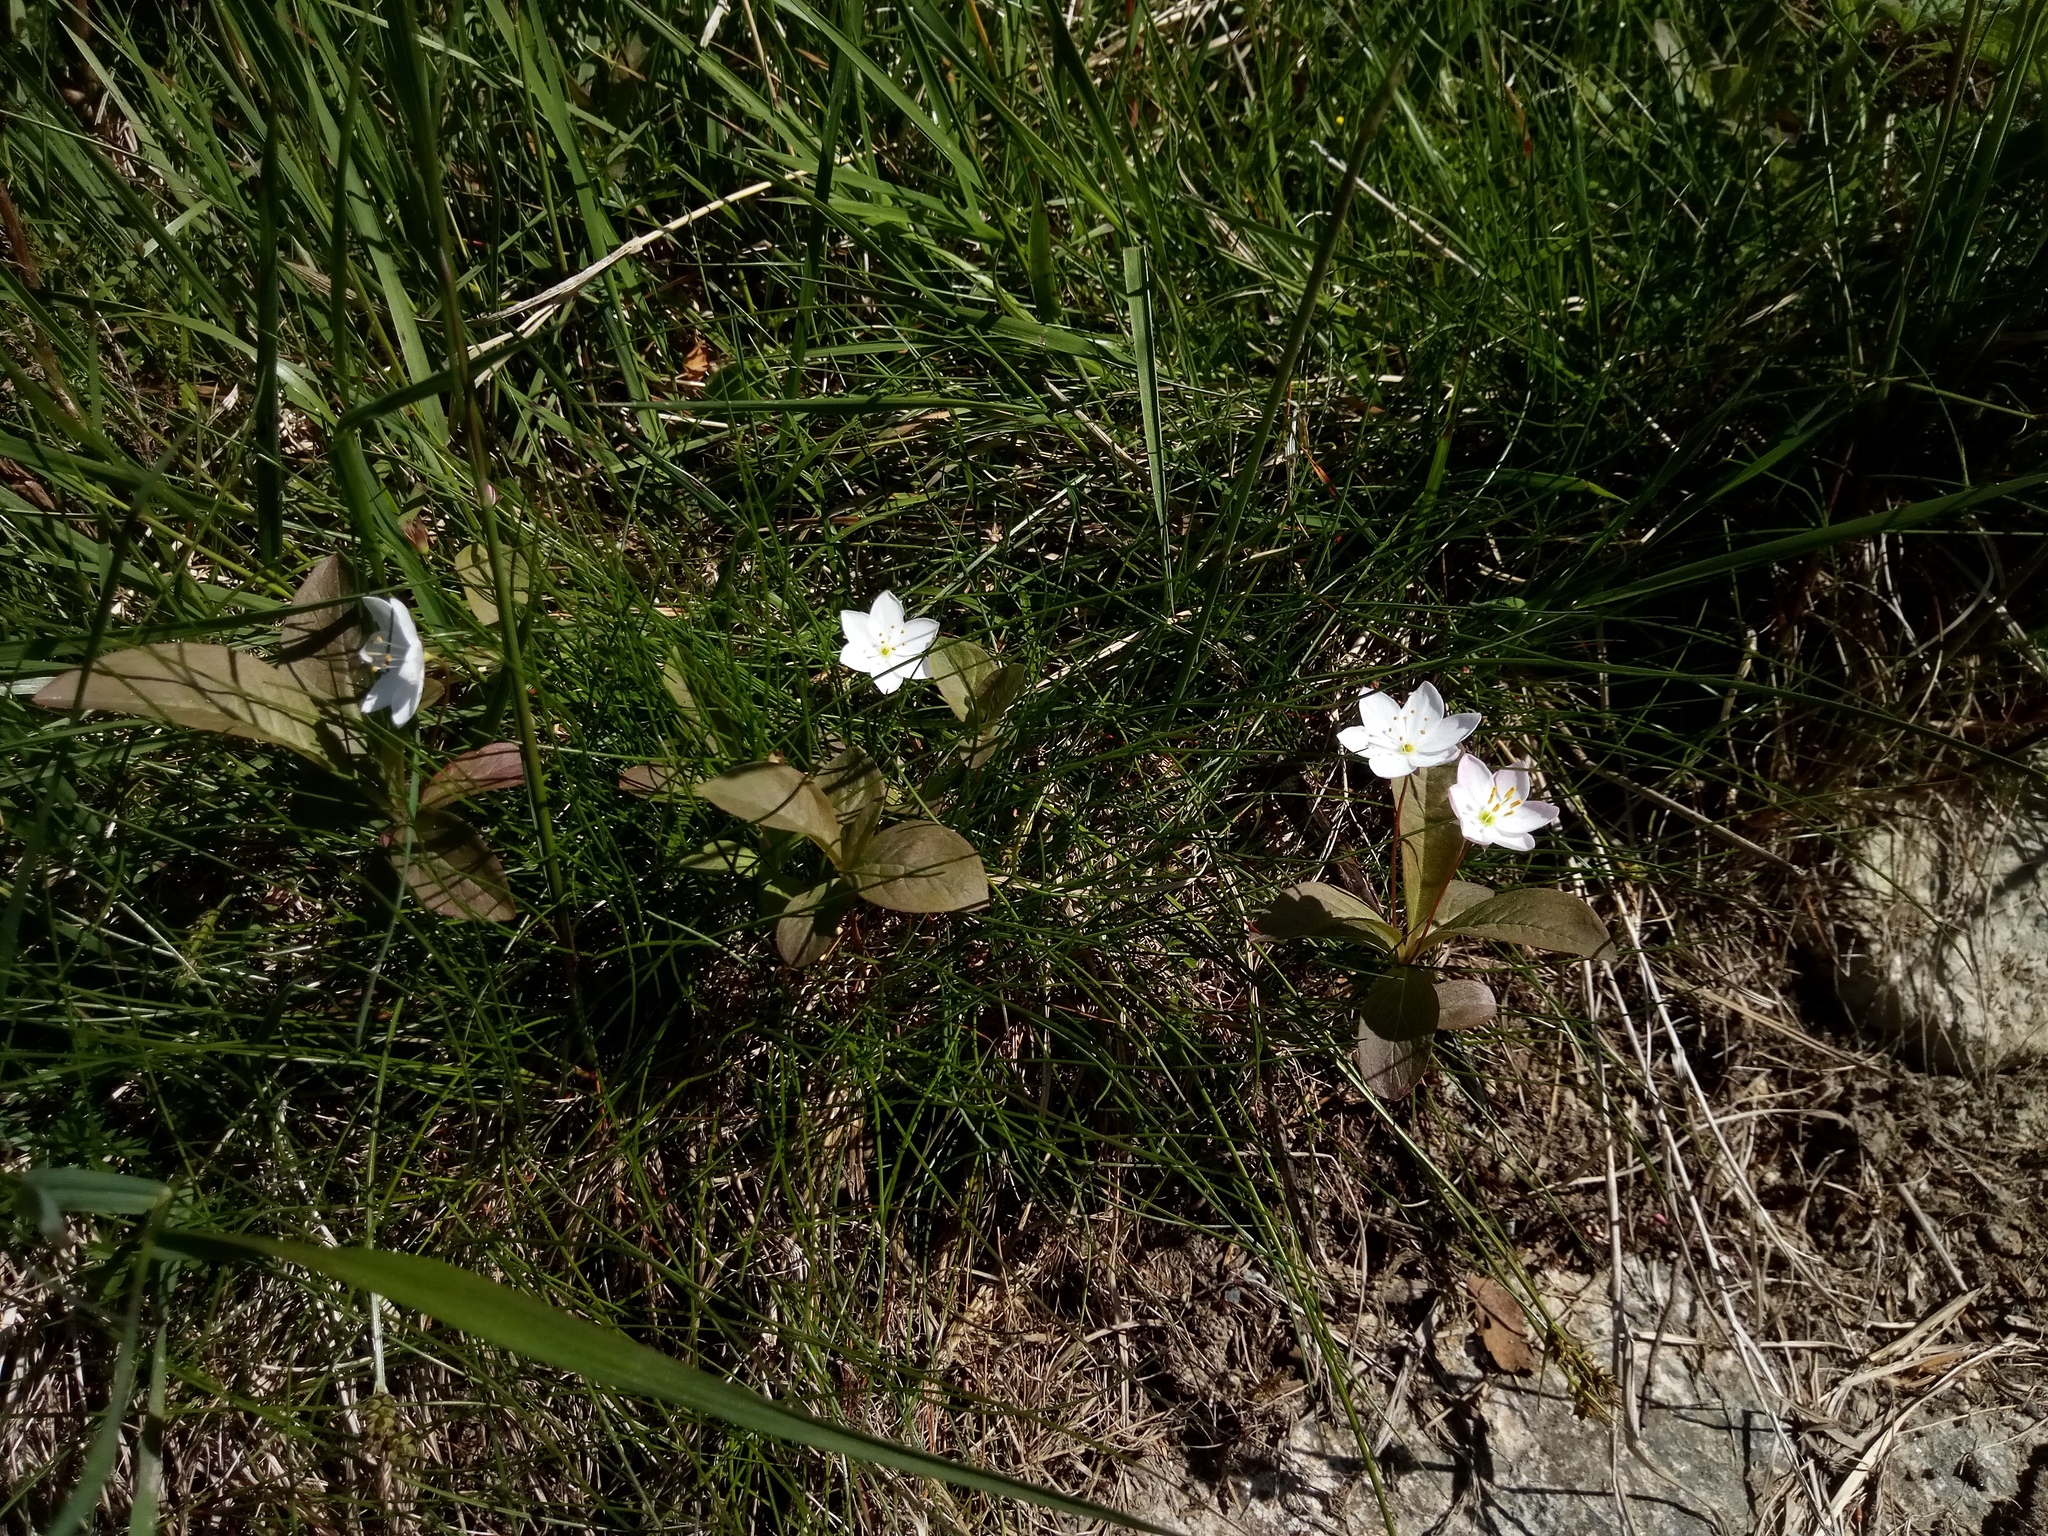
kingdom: Plantae
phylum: Tracheophyta
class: Magnoliopsida
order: Ericales
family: Primulaceae
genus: Lysimachia
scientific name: Lysimachia europaea
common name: Arctic starflower
